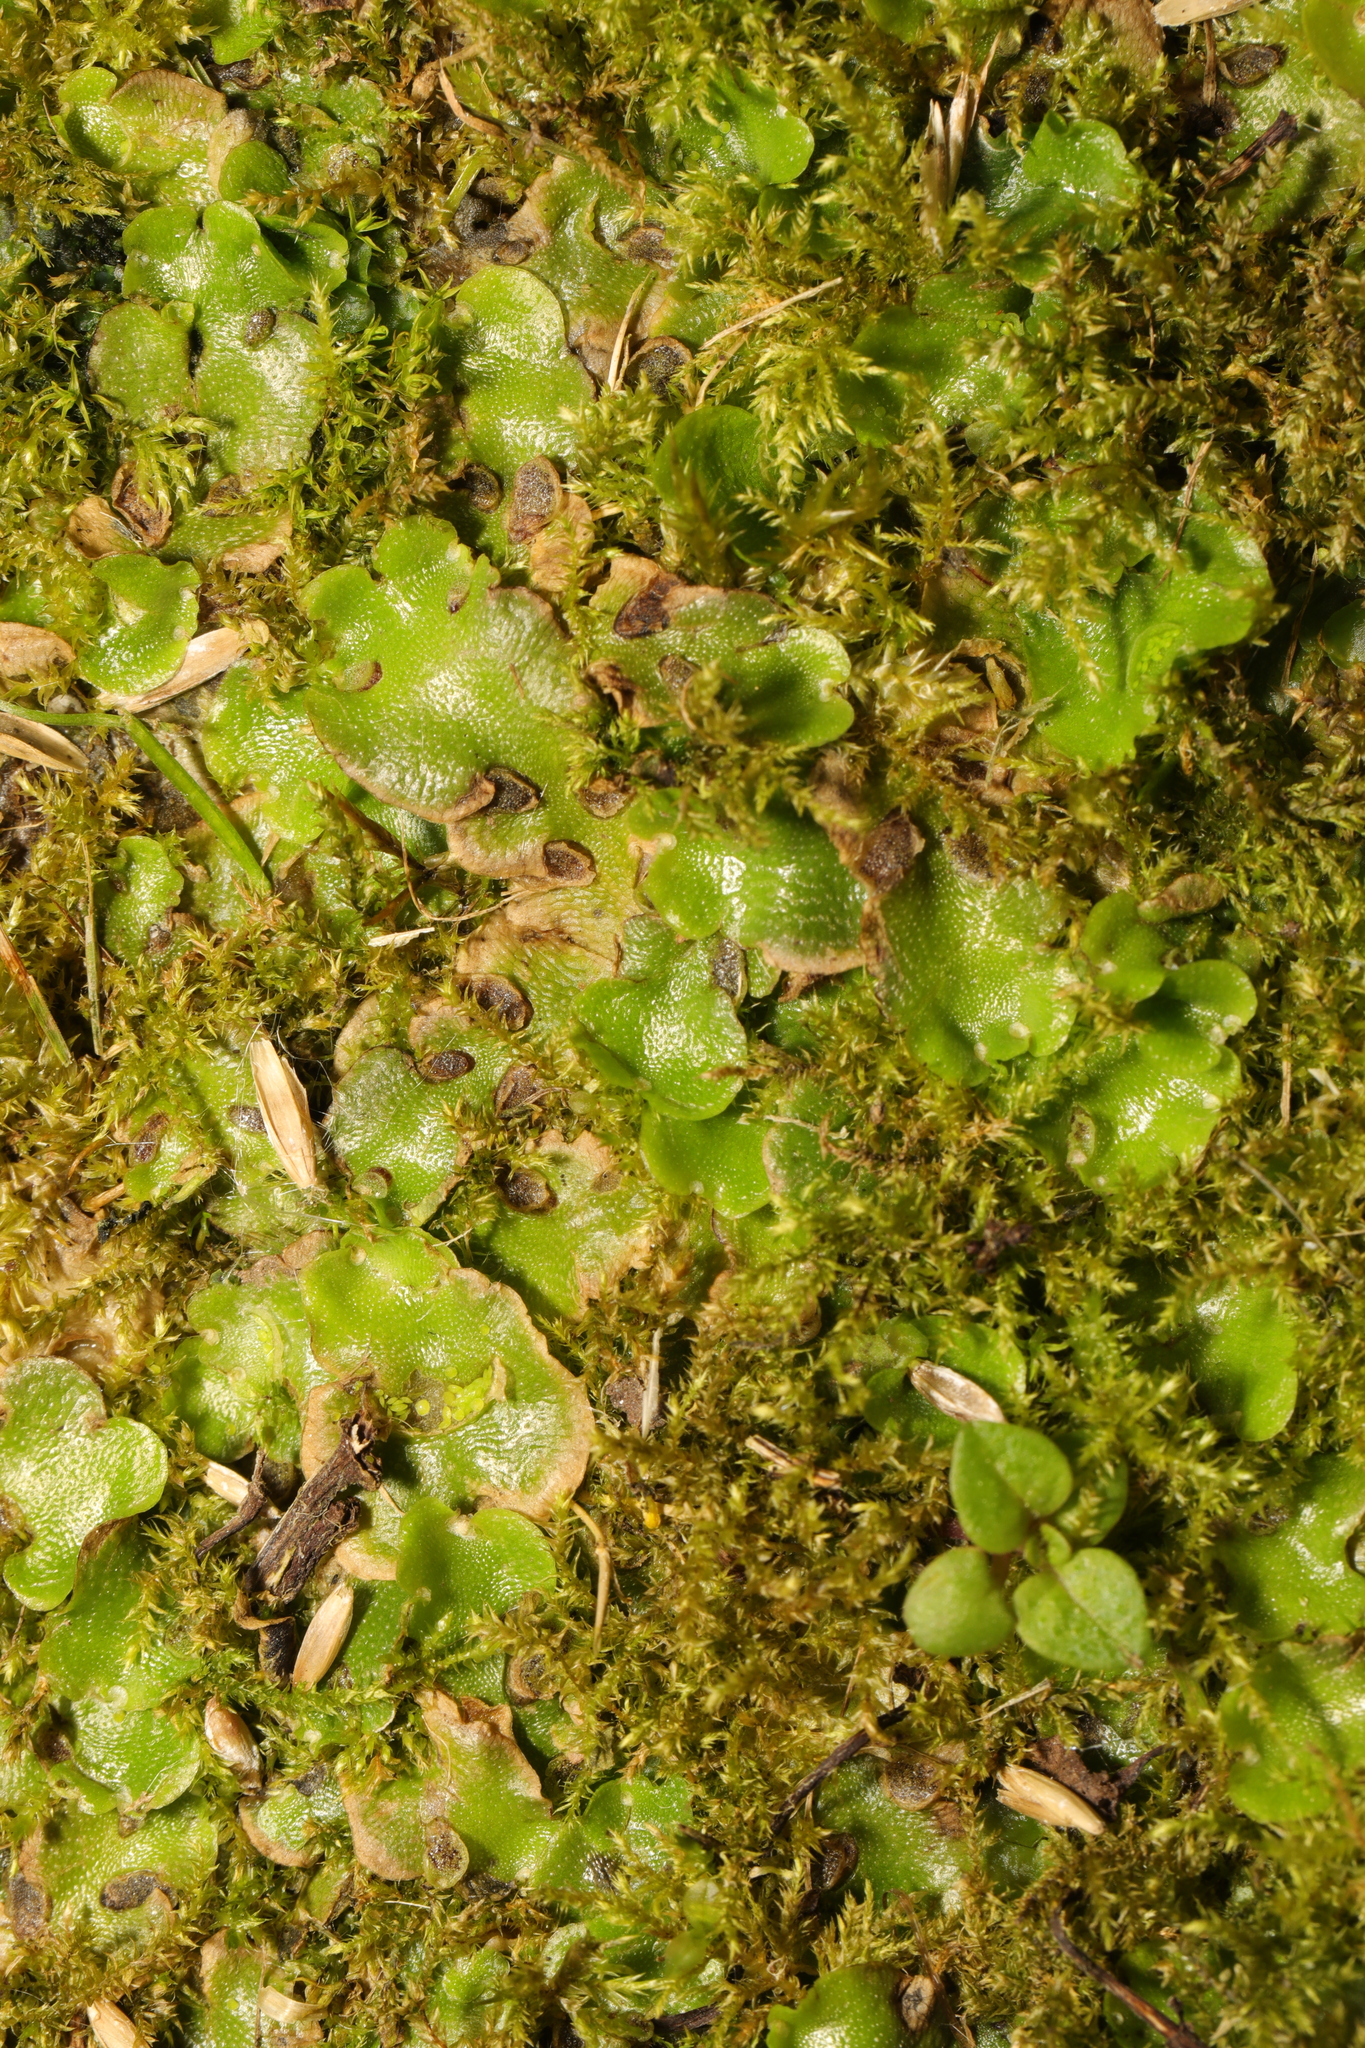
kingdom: Plantae
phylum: Marchantiophyta
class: Marchantiopsida
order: Lunulariales
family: Lunulariaceae
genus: Lunularia
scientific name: Lunularia cruciata
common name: Crescent-cup liverwort
